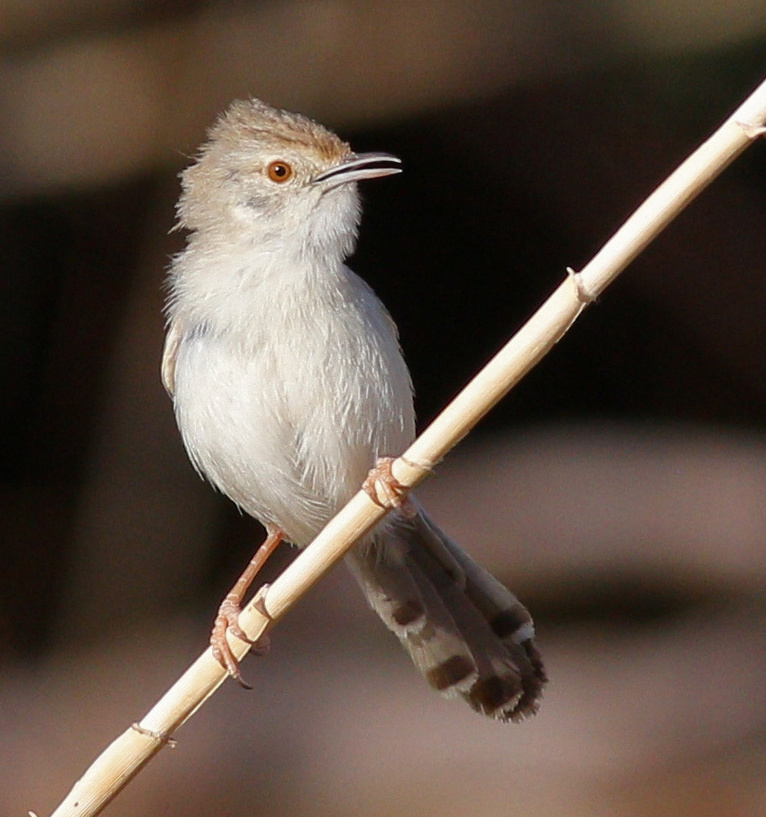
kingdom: Animalia
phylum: Chordata
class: Aves
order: Passeriformes
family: Cisticolidae
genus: Prinia
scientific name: Prinia gracilis
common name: Graceful prinia
